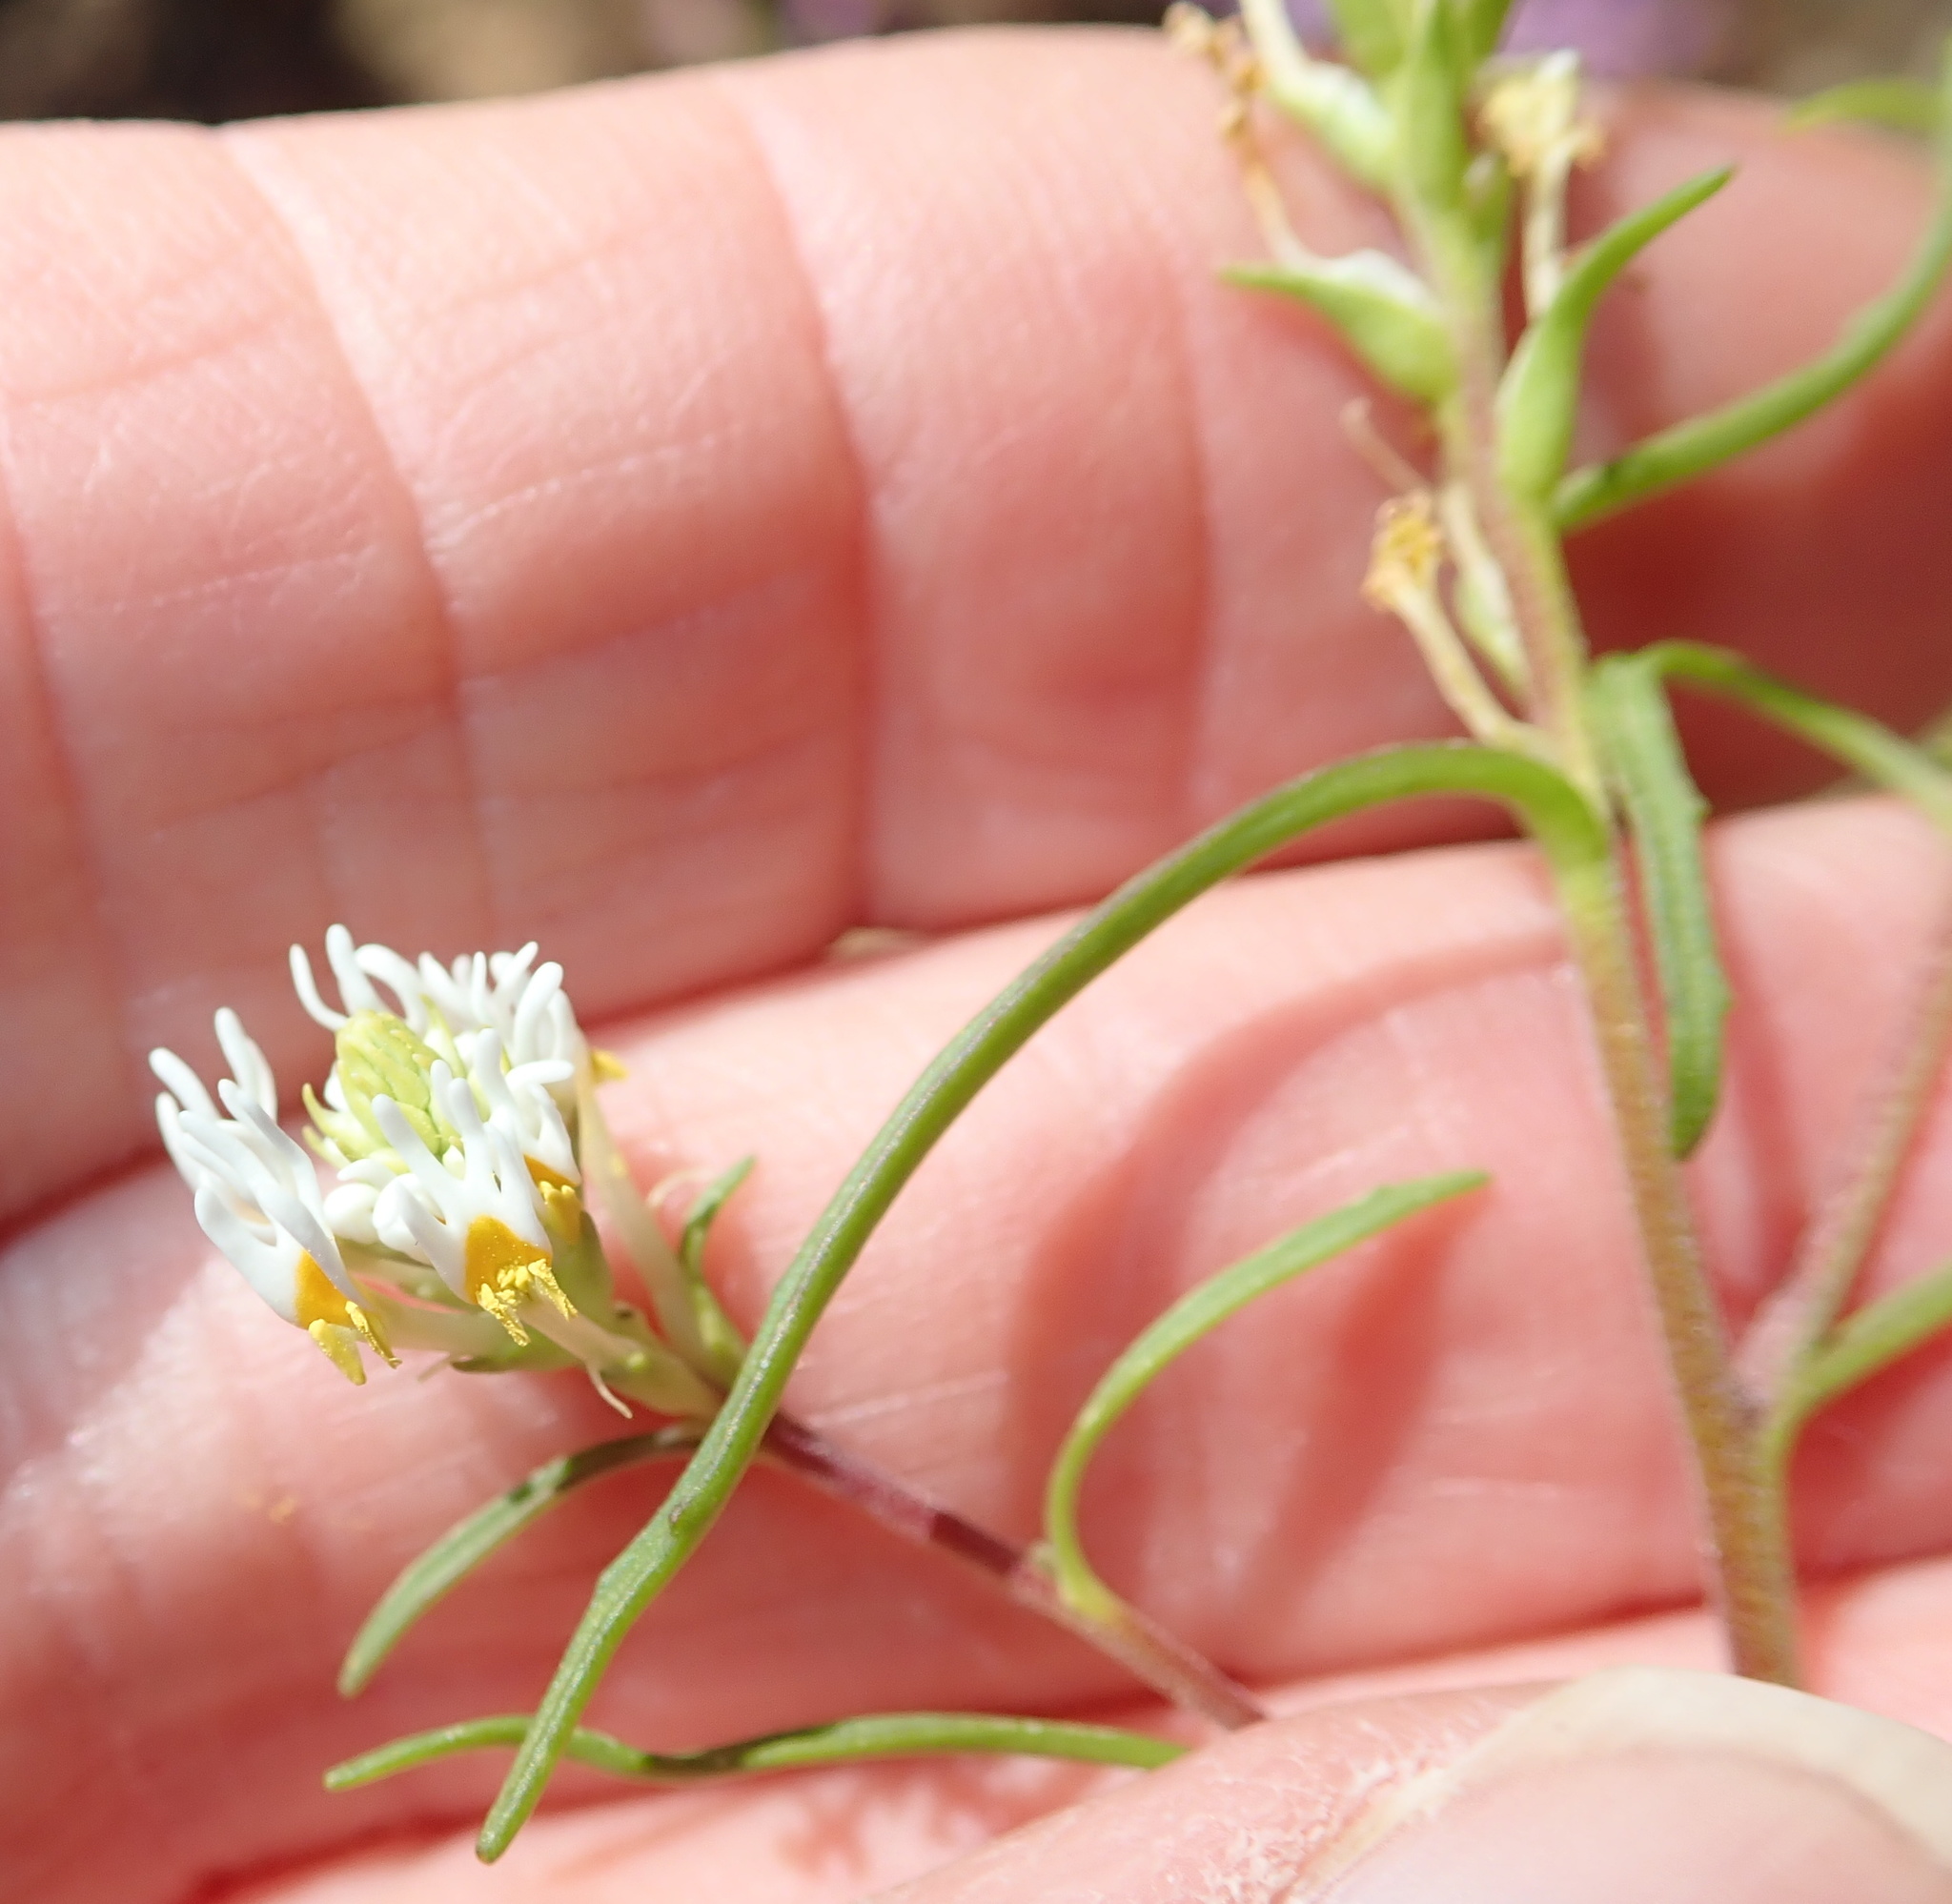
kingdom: Plantae
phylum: Tracheophyta
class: Magnoliopsida
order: Lamiales
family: Scrophulariaceae
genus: Hebenstretia
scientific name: Hebenstretia parviflora
